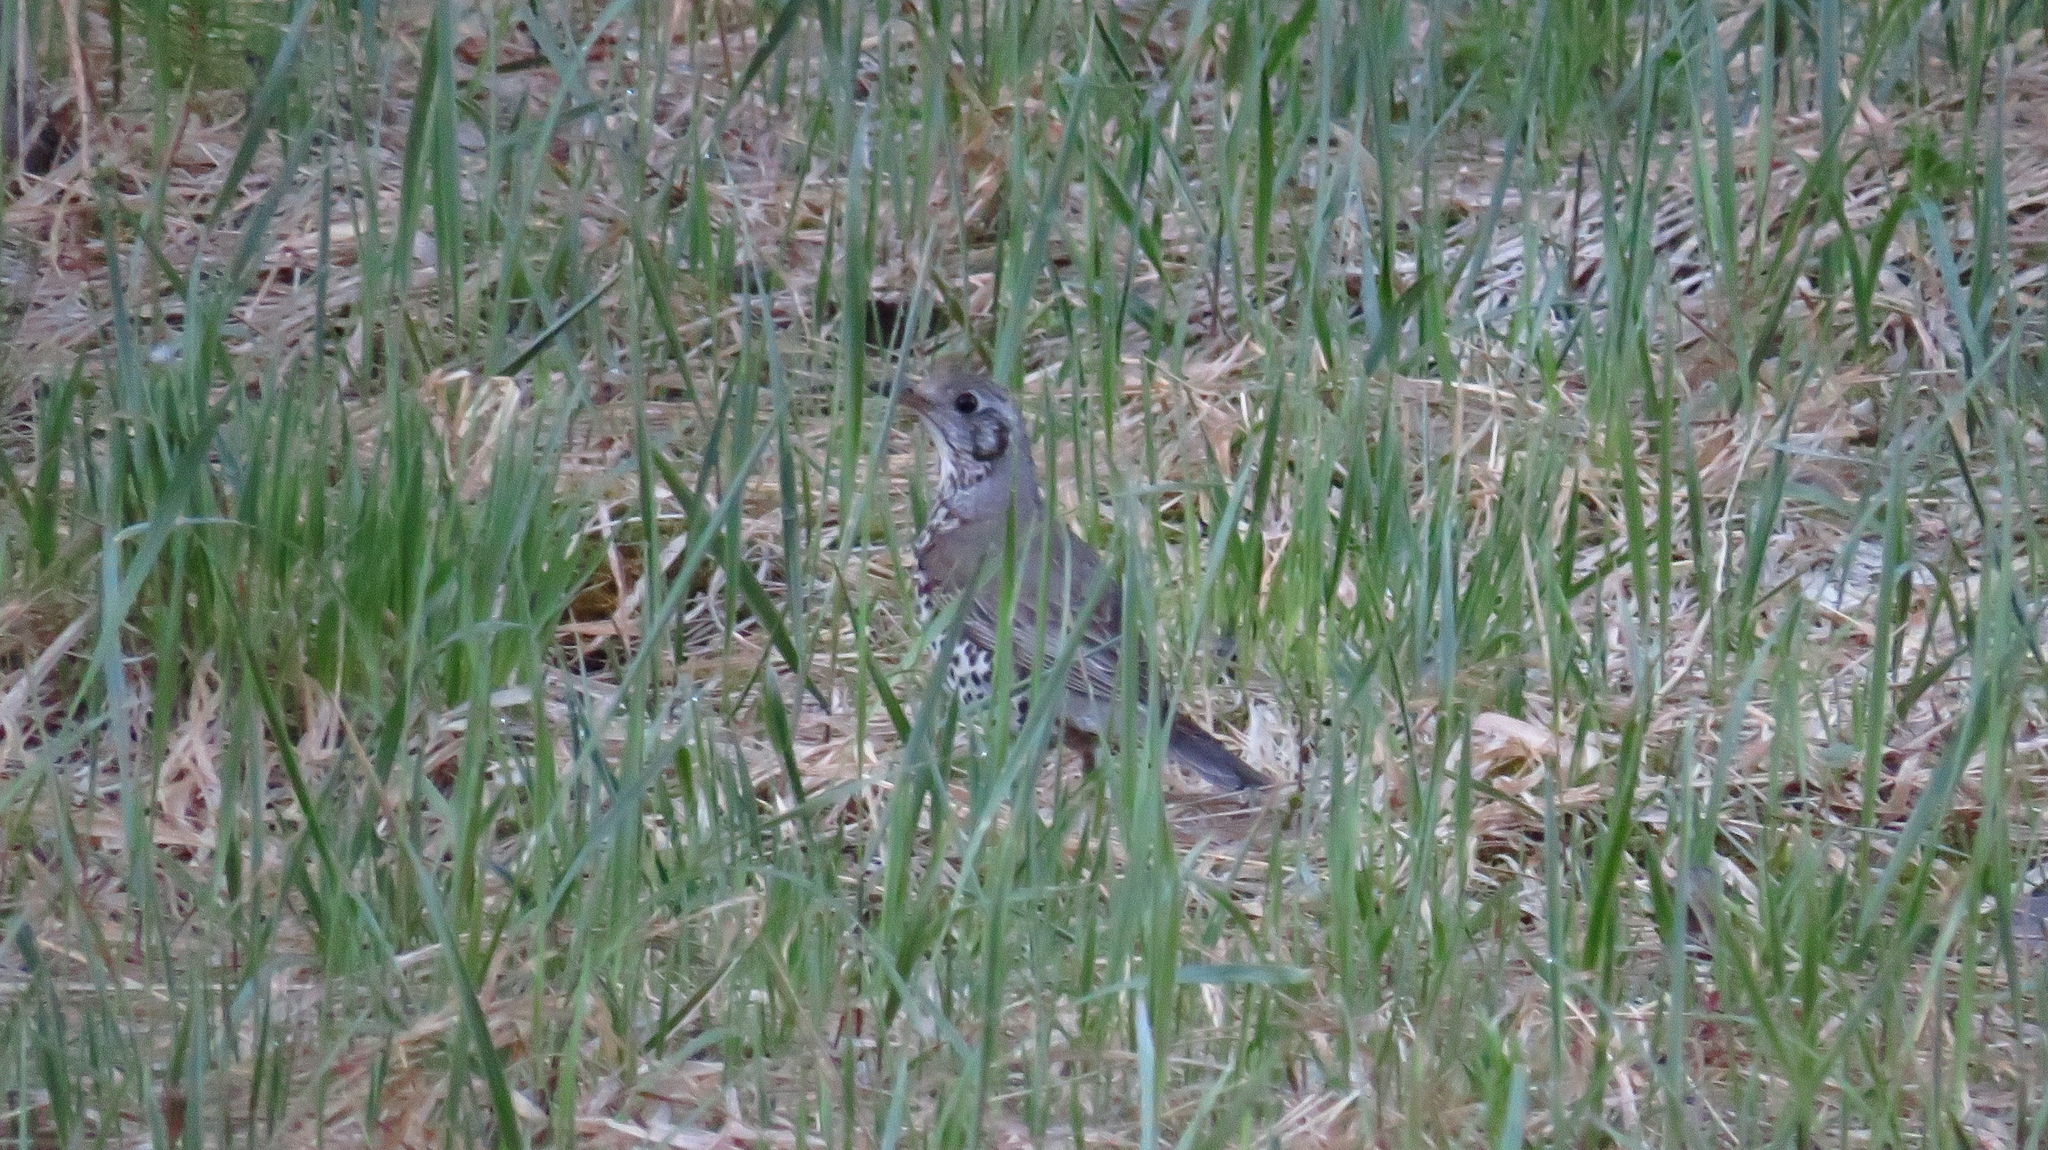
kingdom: Animalia
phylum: Chordata
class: Aves
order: Passeriformes
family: Turdidae
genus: Turdus
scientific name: Turdus viscivorus
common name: Mistle thrush
